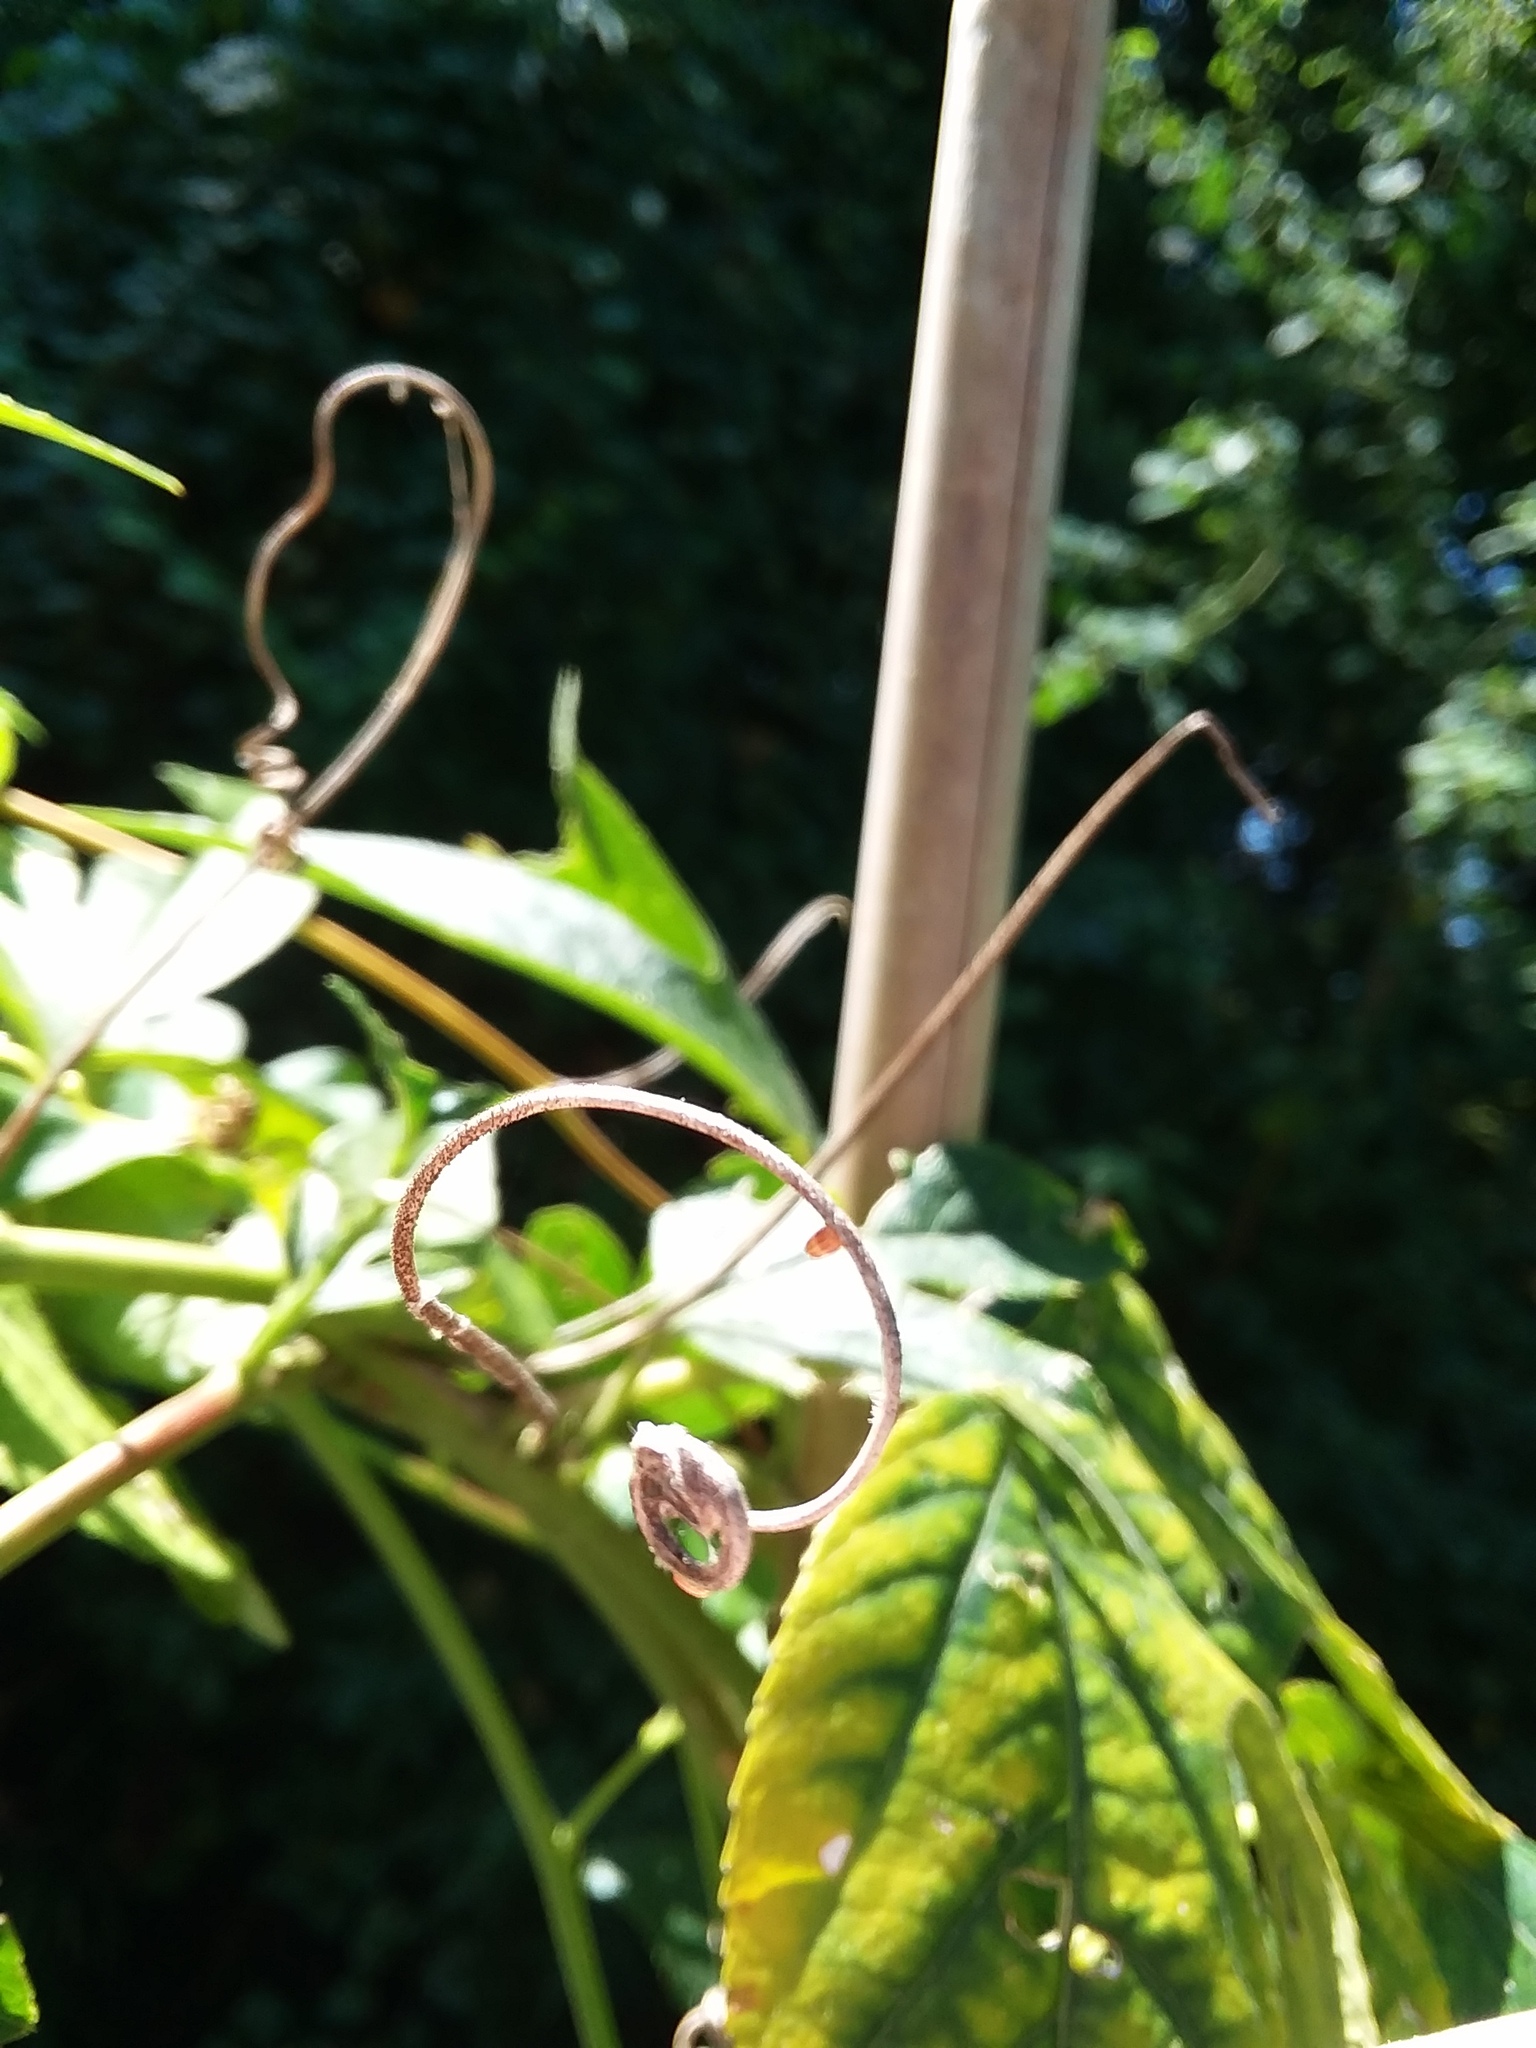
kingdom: Animalia
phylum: Arthropoda
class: Insecta
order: Lepidoptera
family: Nymphalidae
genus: Dione
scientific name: Dione vanillae
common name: Gulf fritillary
